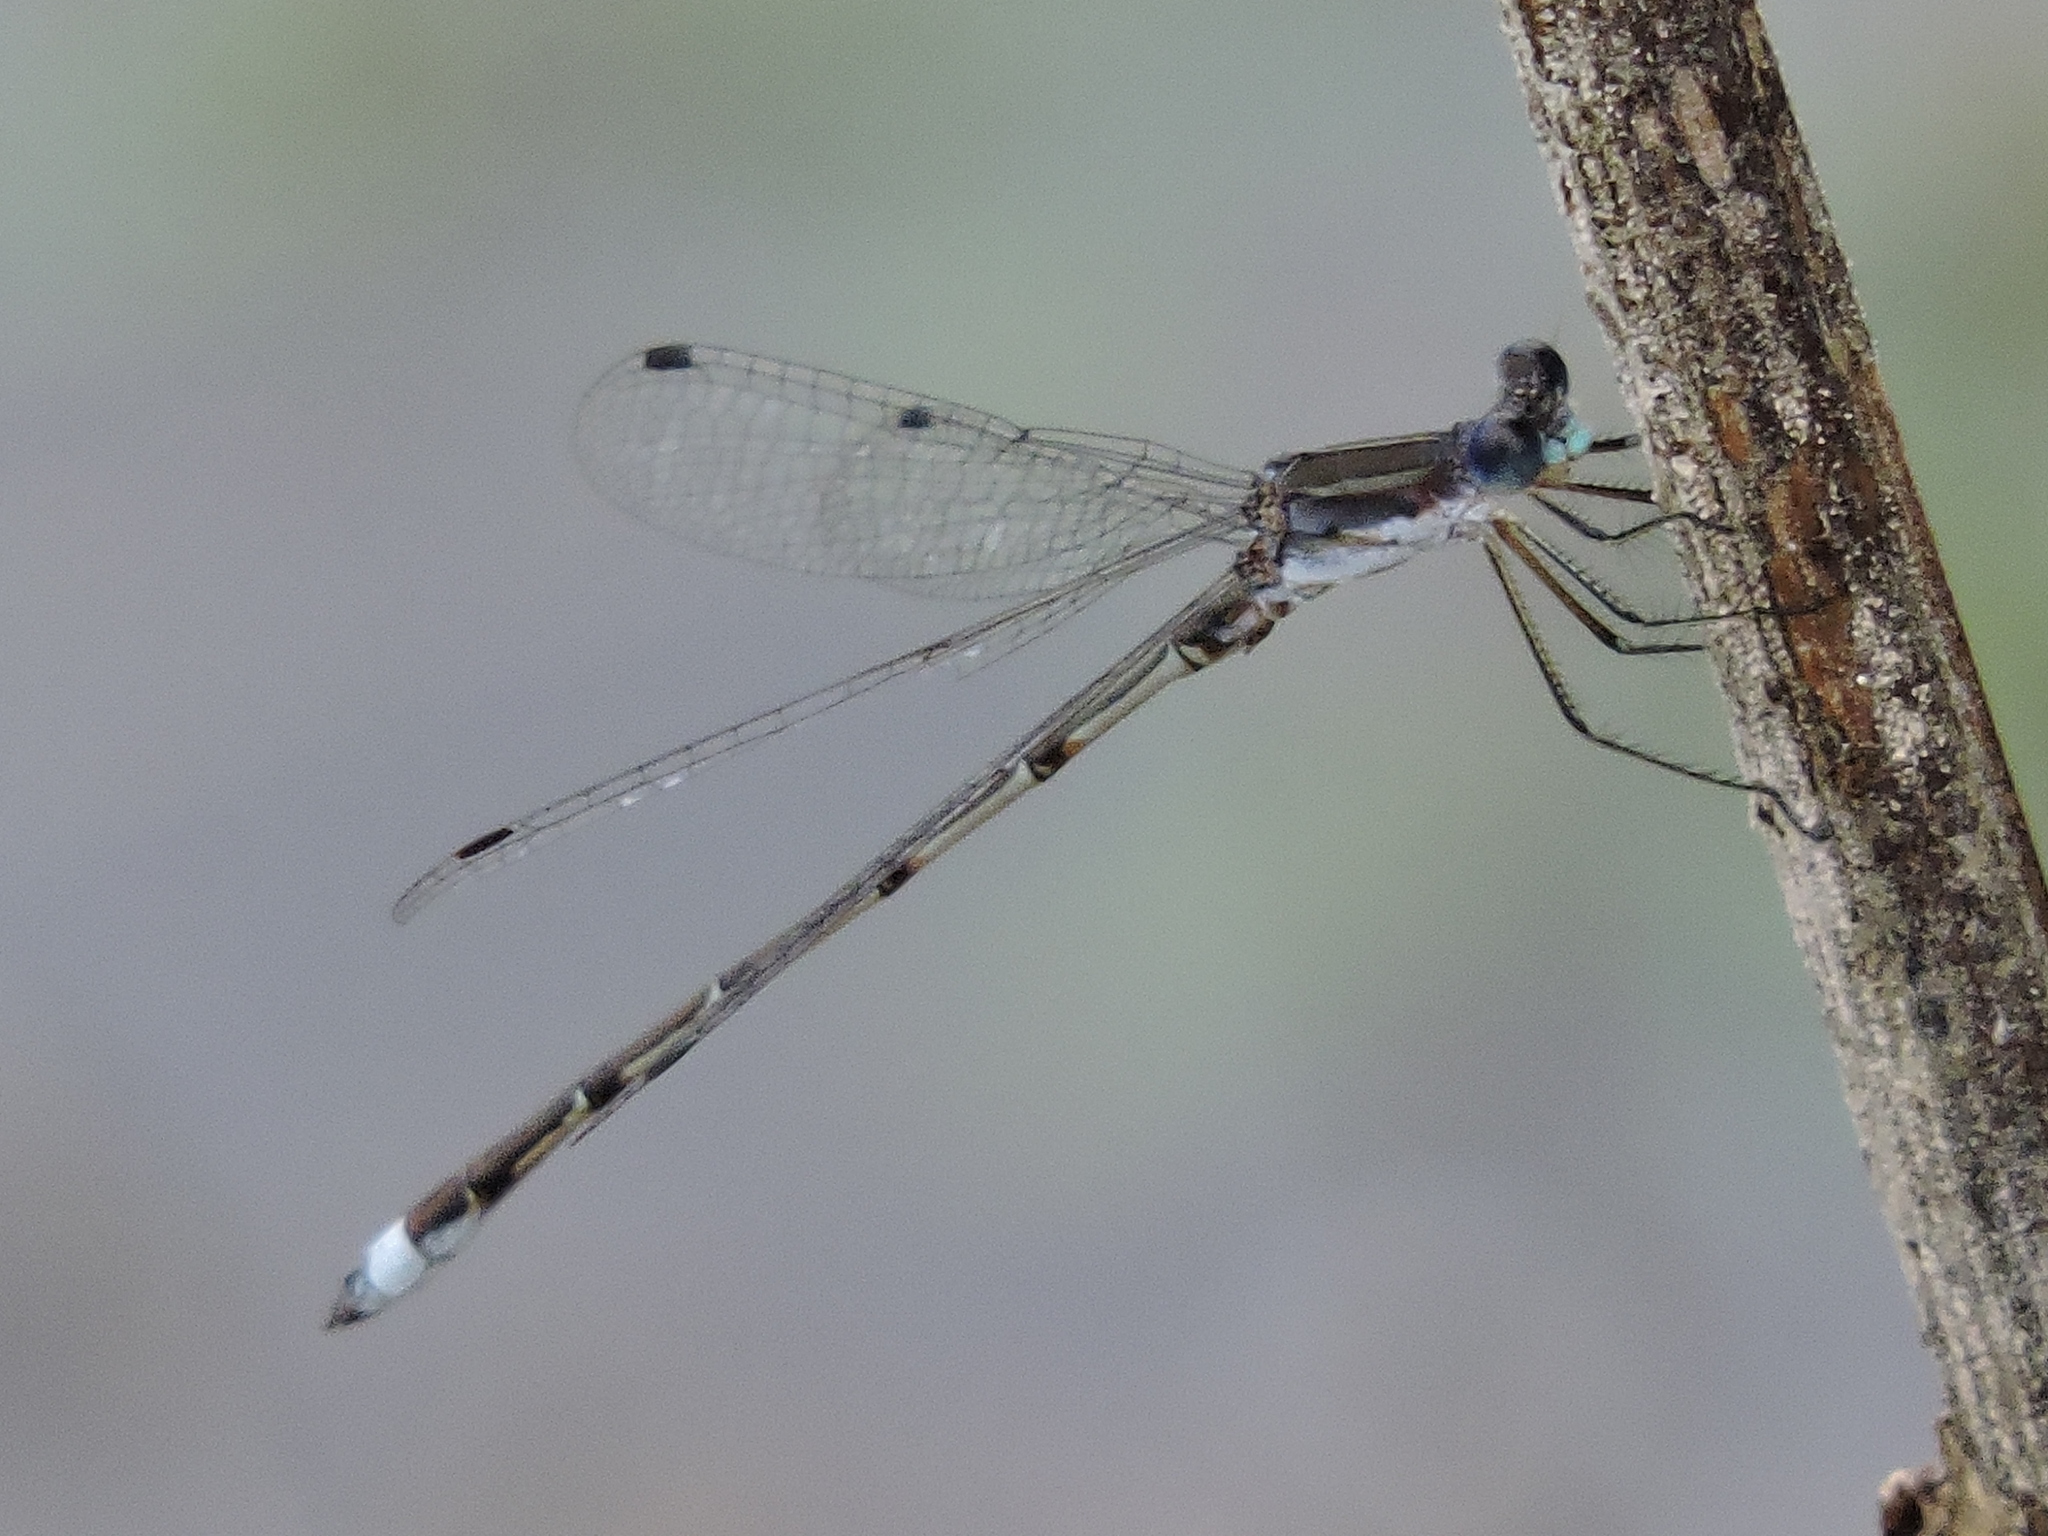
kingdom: Animalia
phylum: Arthropoda
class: Insecta
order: Odonata
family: Lestidae
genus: Lestes
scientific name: Lestes australis
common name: Southern spreadwing
